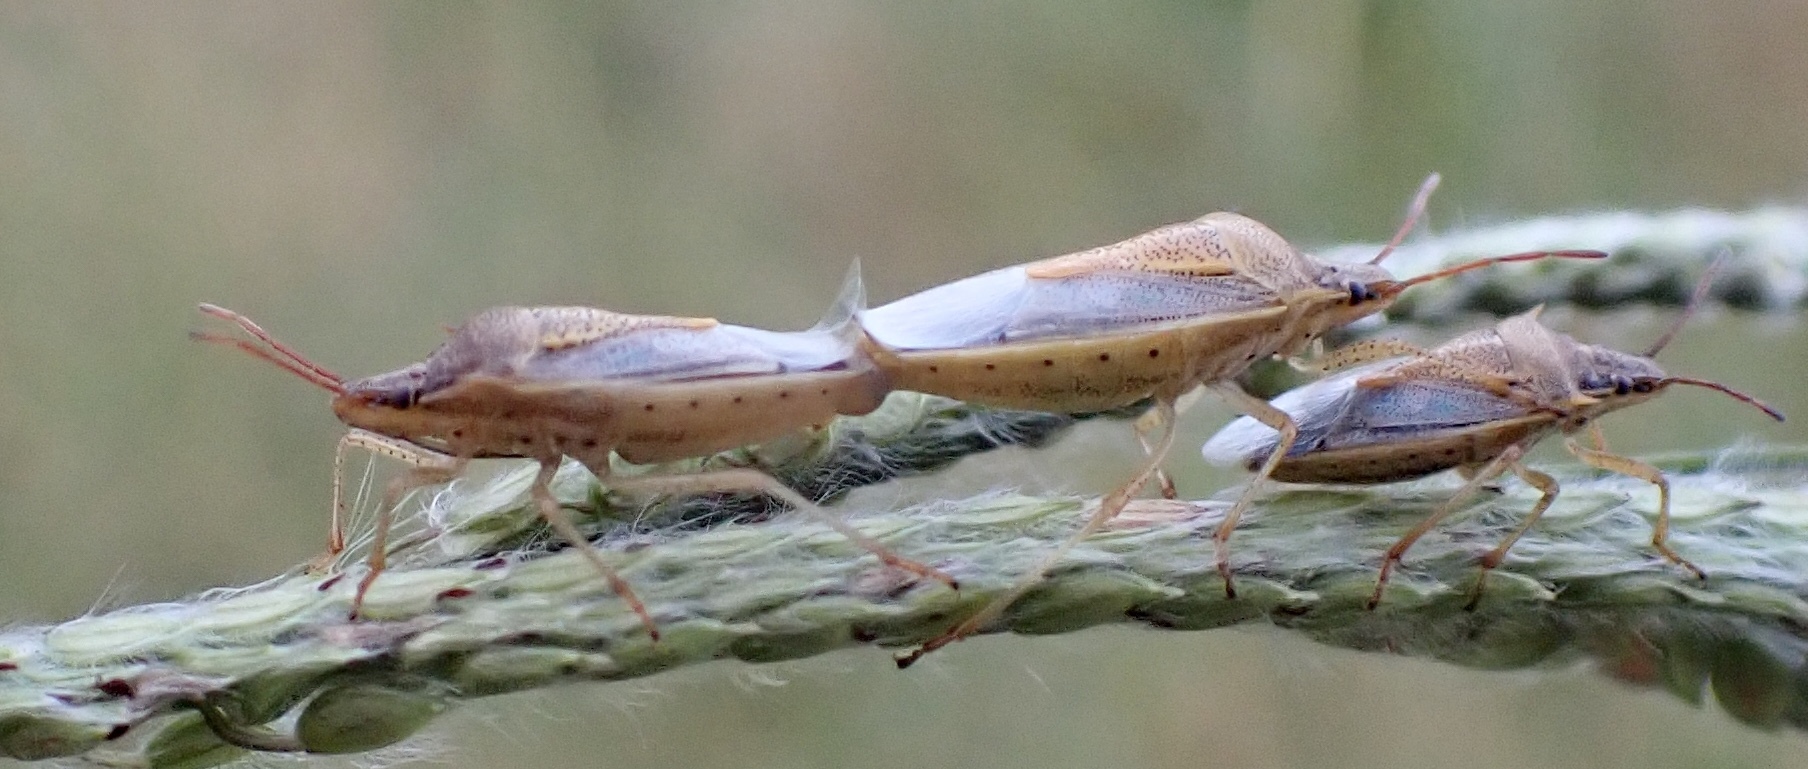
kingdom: Animalia
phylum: Arthropoda
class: Insecta
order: Hemiptera
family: Pentatomidae
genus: Oebalus
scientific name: Oebalus pugnax
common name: Rice stink bug
